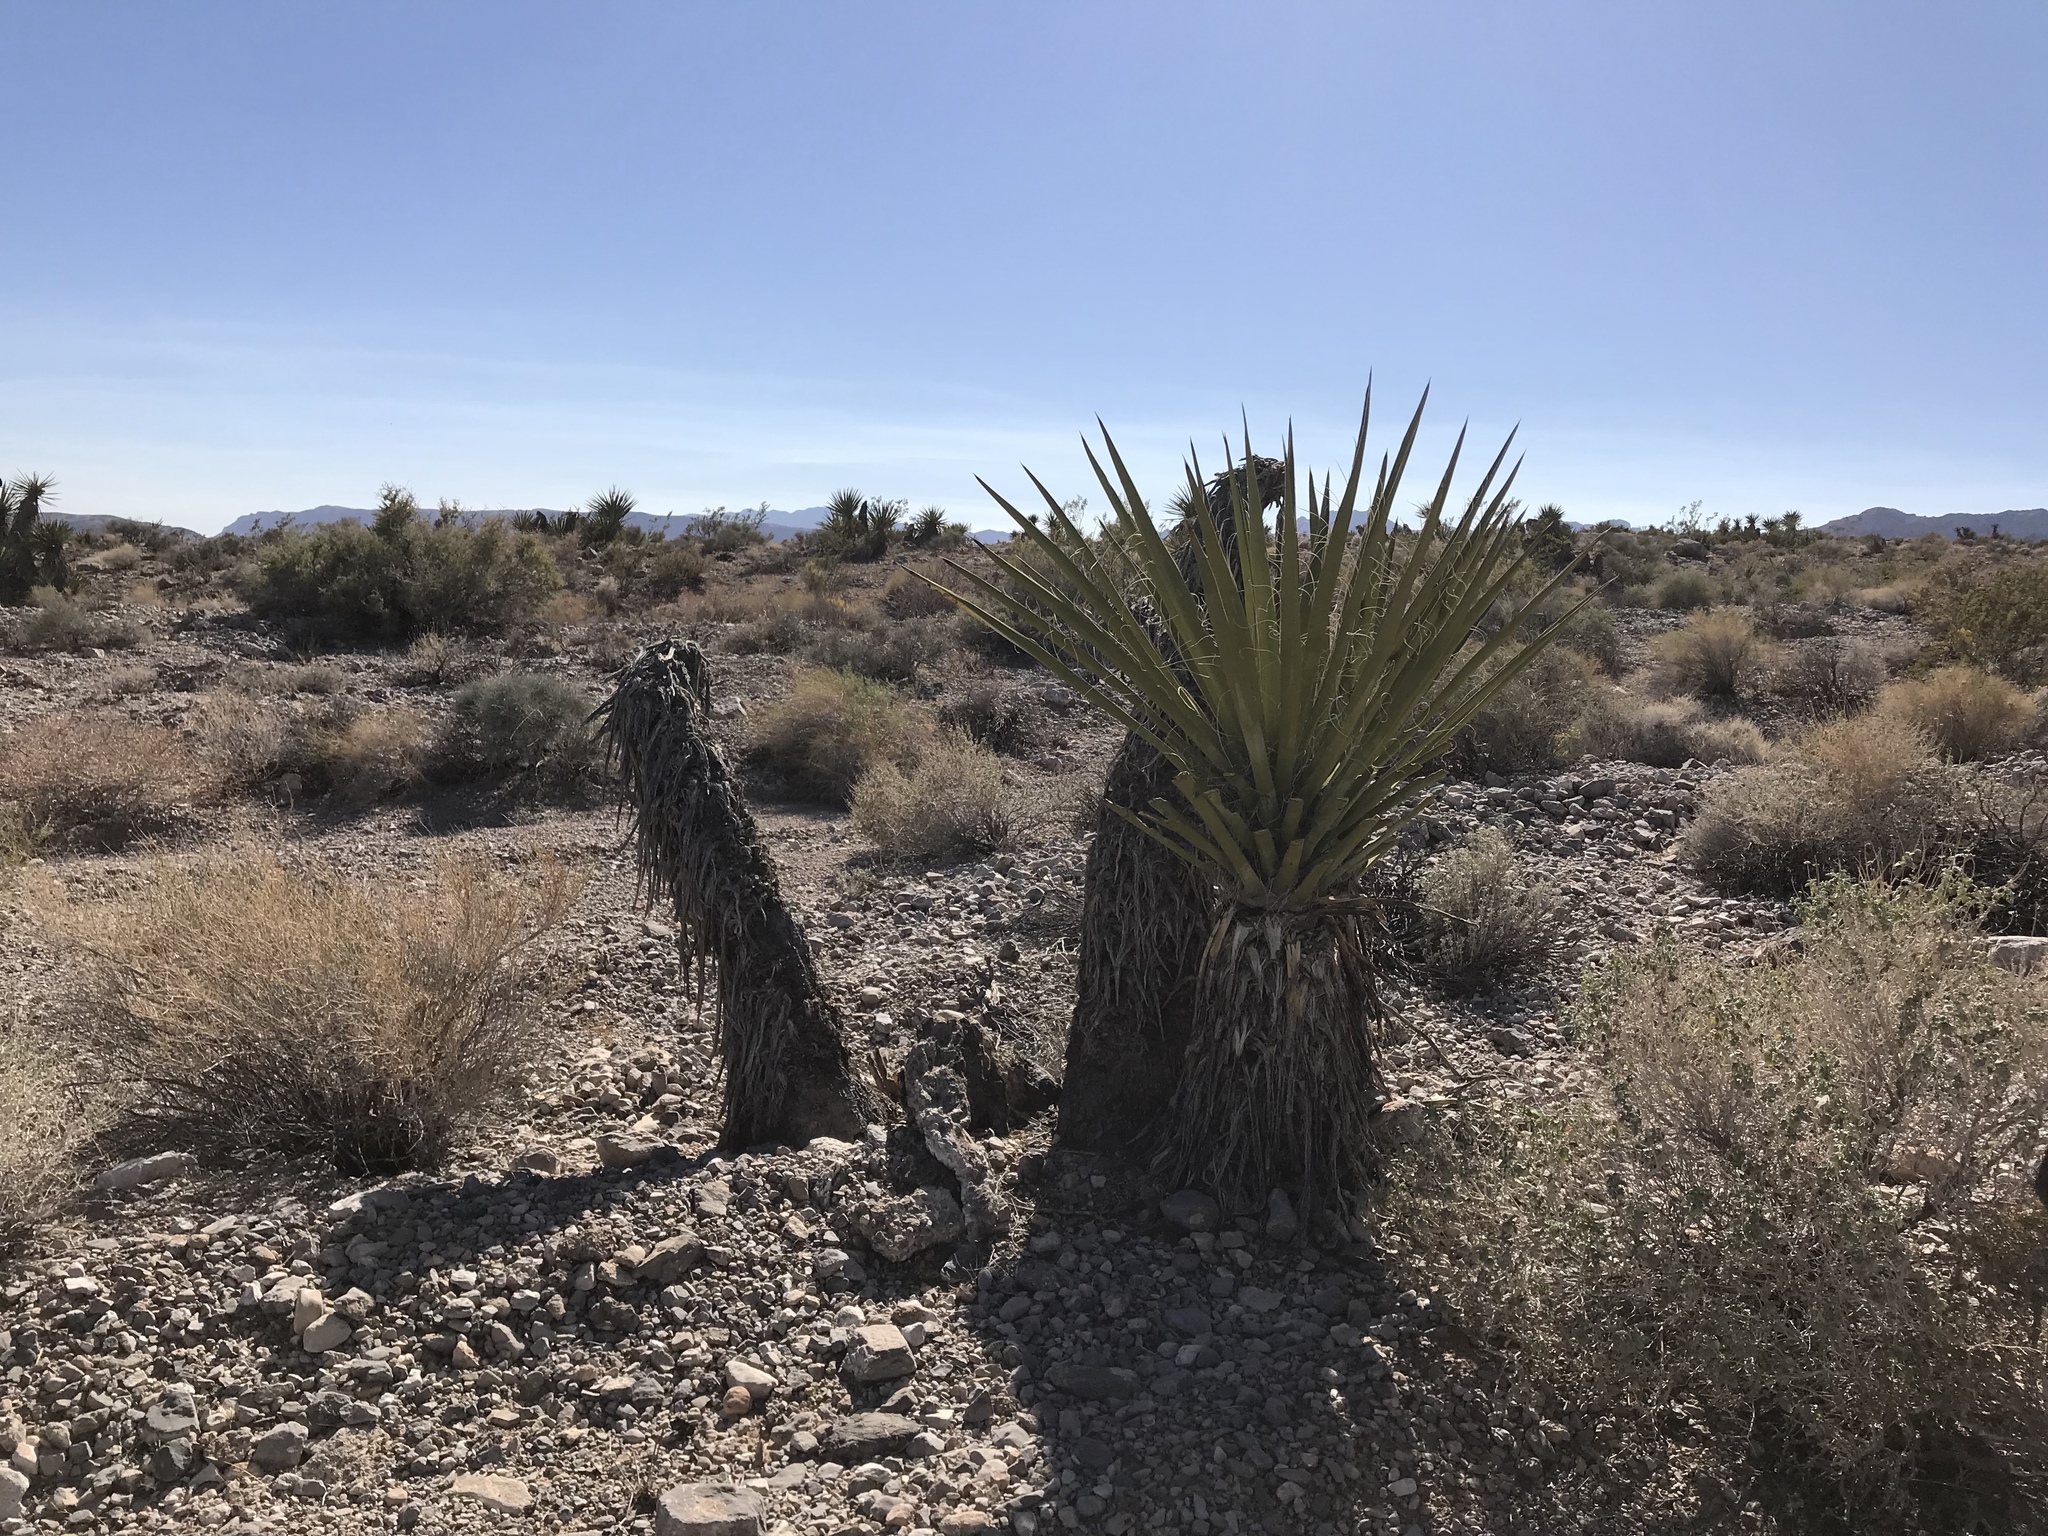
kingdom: Plantae
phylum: Tracheophyta
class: Liliopsida
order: Asparagales
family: Asparagaceae
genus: Yucca
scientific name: Yucca schidigera
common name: Mojave yucca
